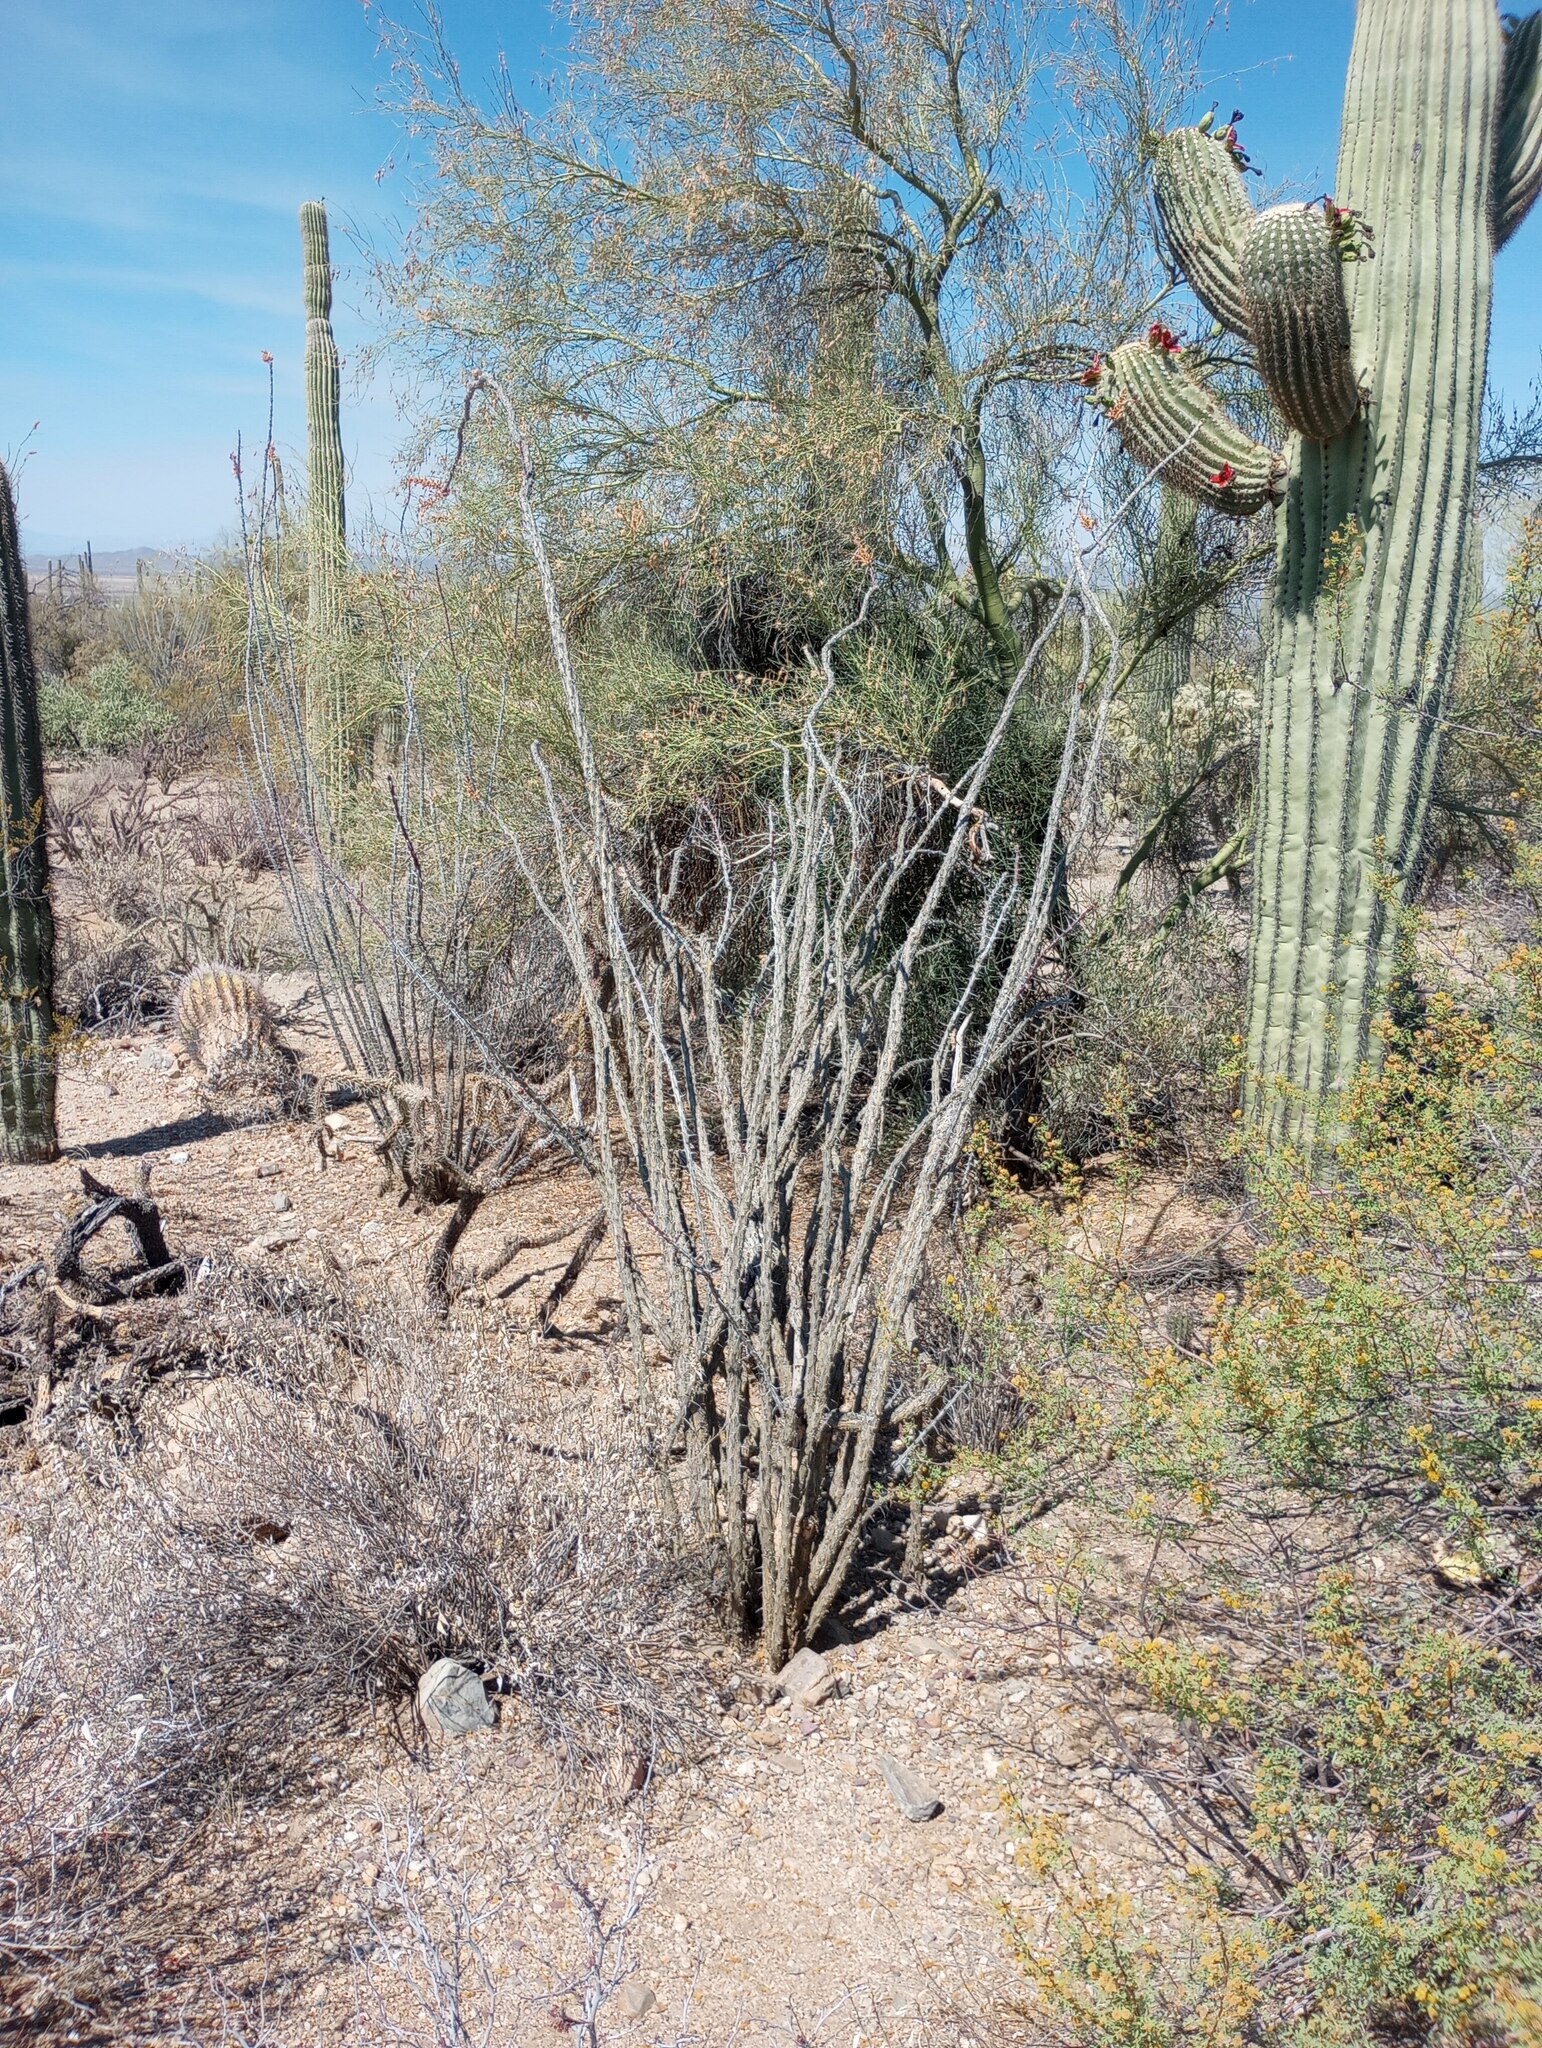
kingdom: Plantae
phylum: Tracheophyta
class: Magnoliopsida
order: Ericales
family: Fouquieriaceae
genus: Fouquieria
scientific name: Fouquieria splendens
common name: Vine-cactus
